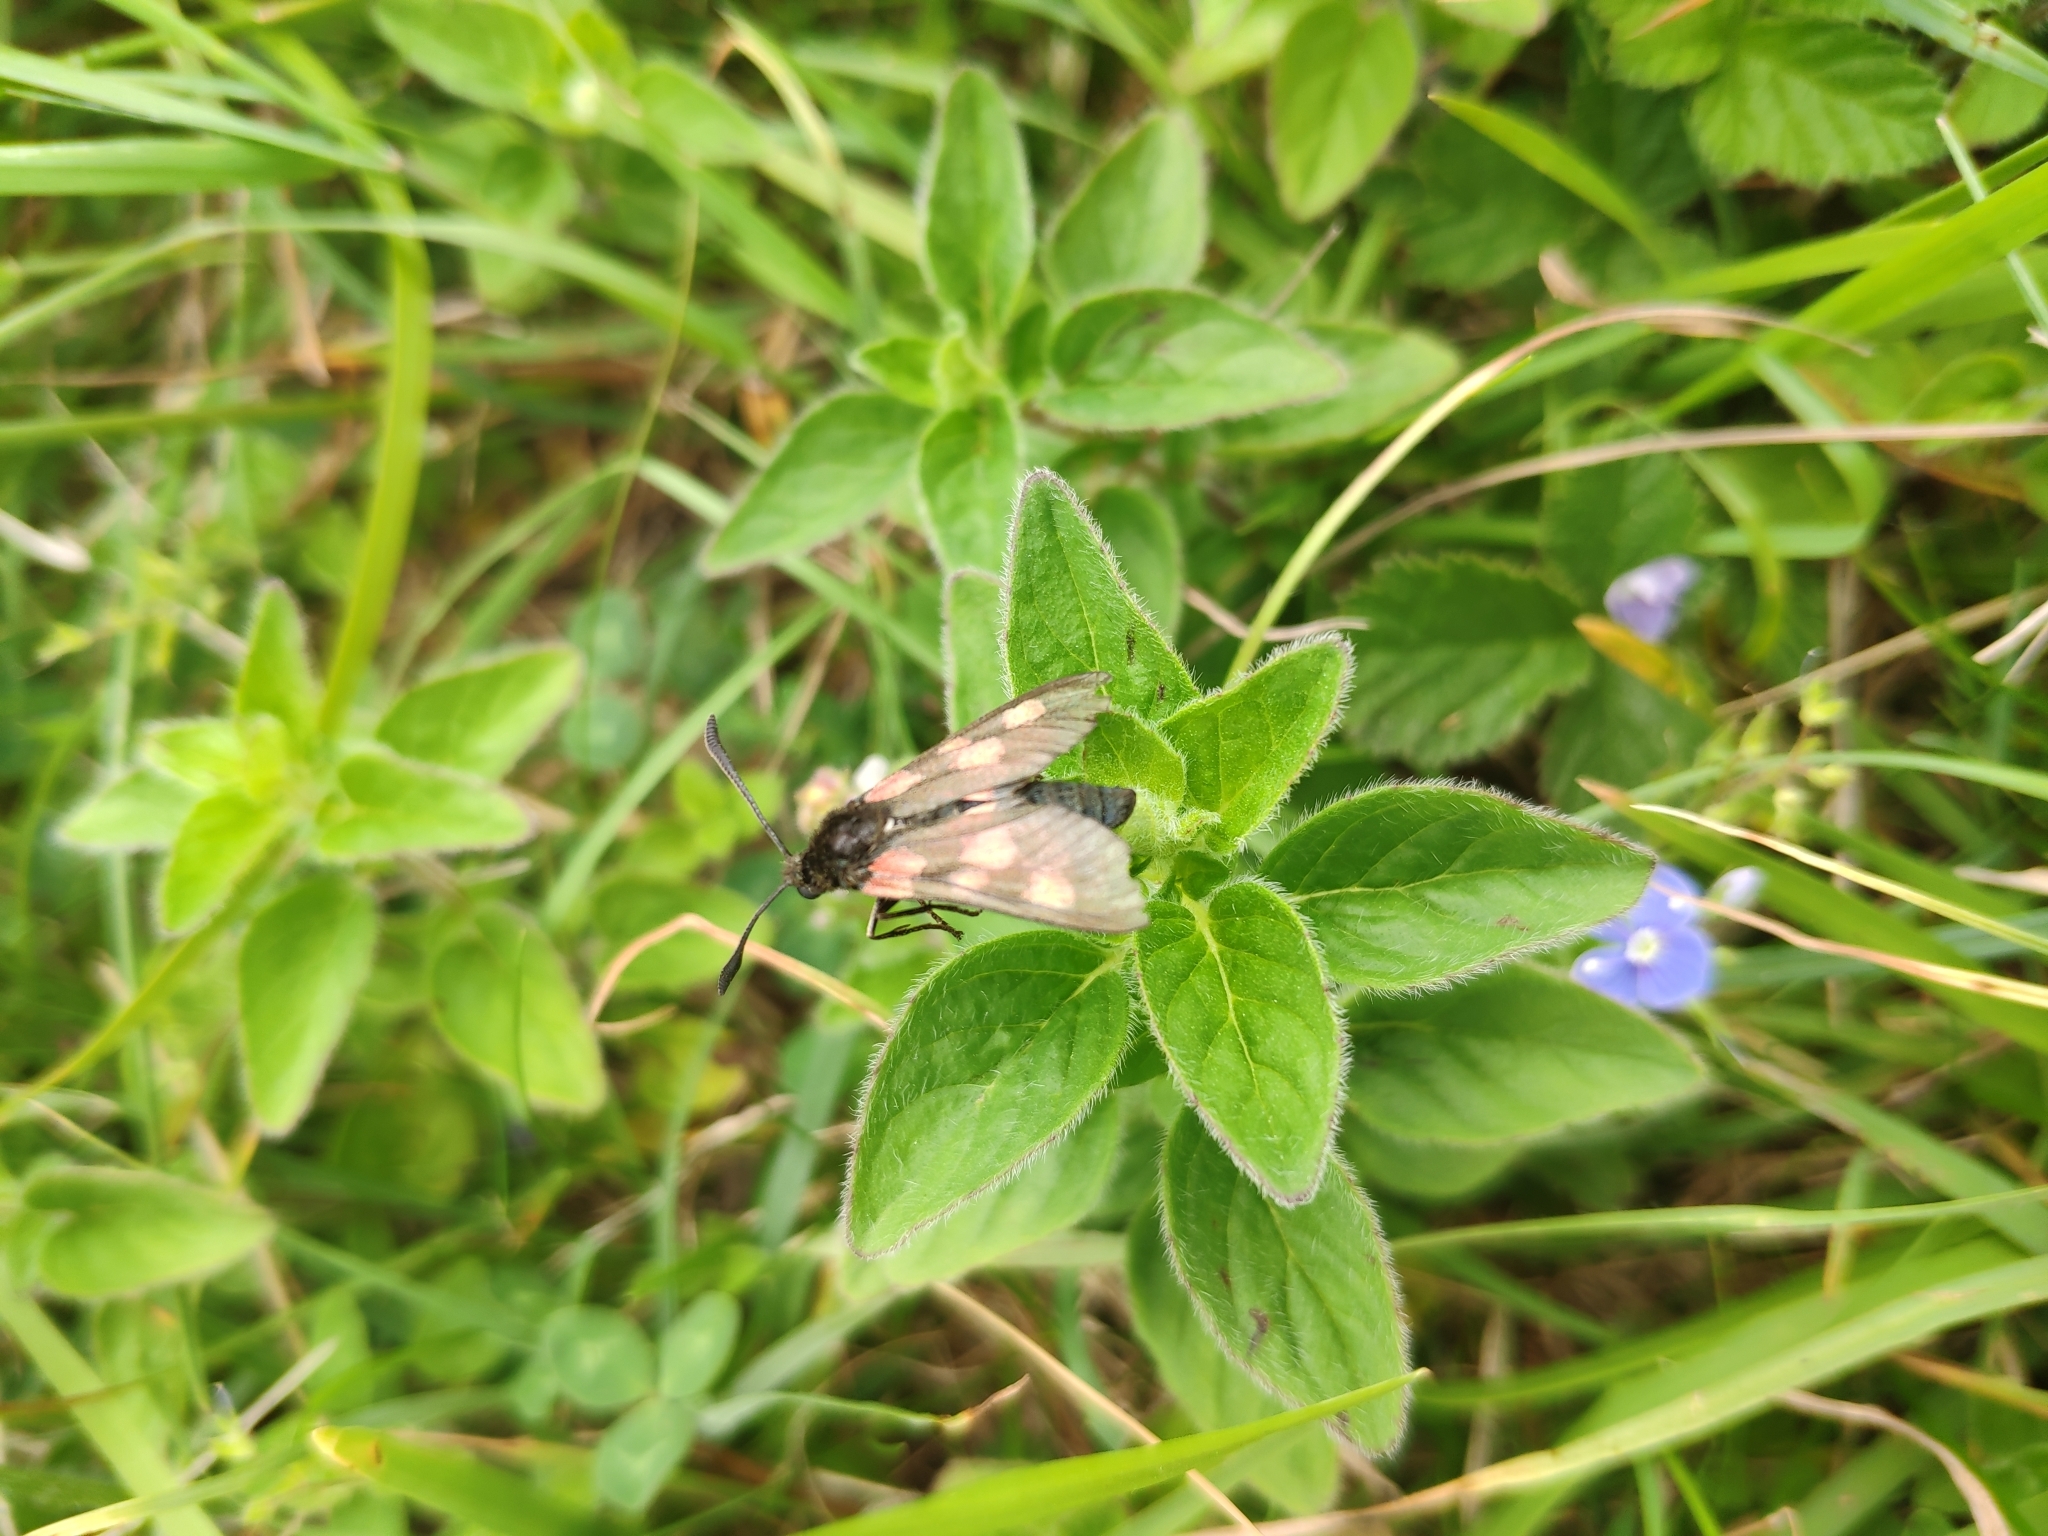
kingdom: Animalia
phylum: Arthropoda
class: Insecta
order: Lepidoptera
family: Zygaenidae
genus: Zygaena
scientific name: Zygaena trifolii
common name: Five-spot burnet
